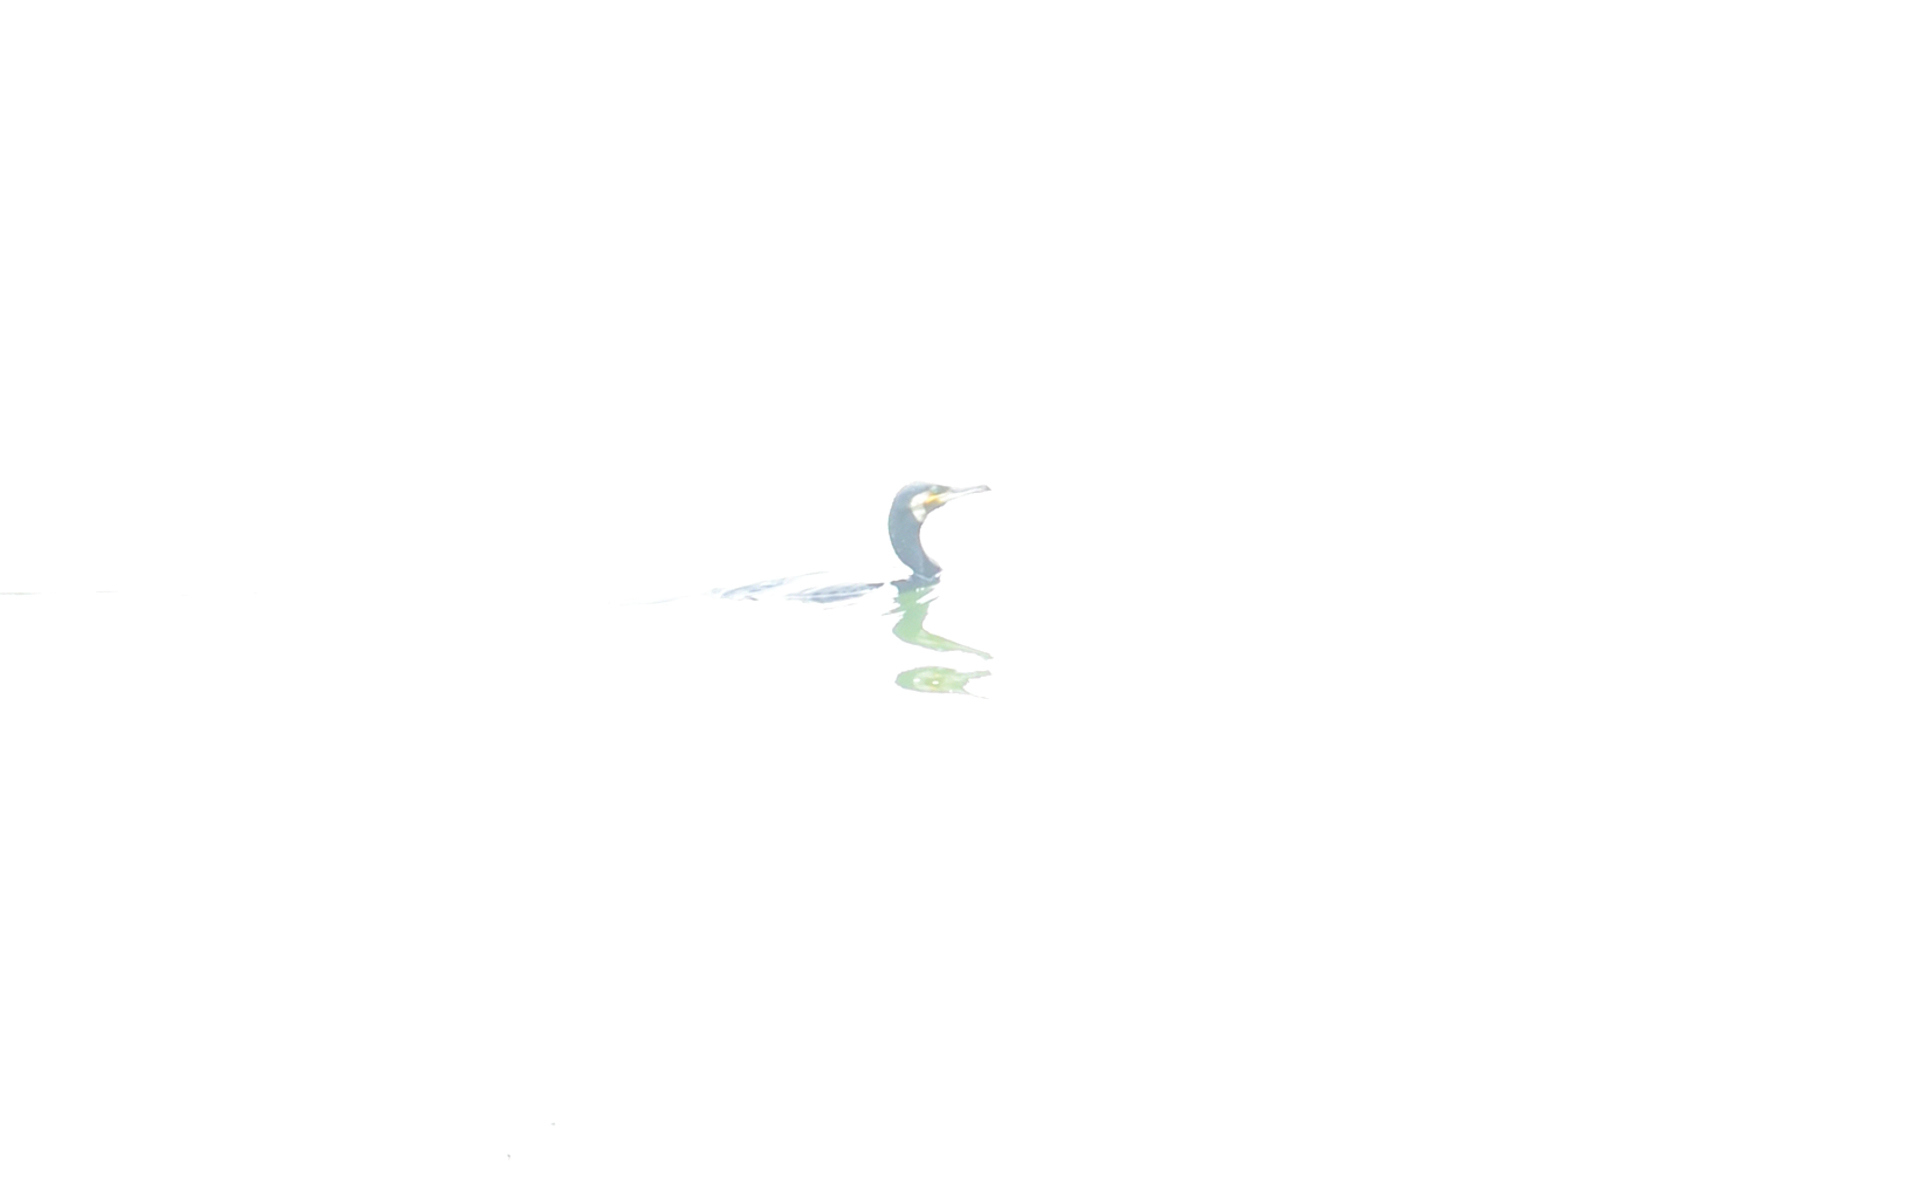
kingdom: Animalia
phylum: Chordata
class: Aves
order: Suliformes
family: Phalacrocoracidae
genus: Phalacrocorax
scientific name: Phalacrocorax carbo
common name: Great cormorant
